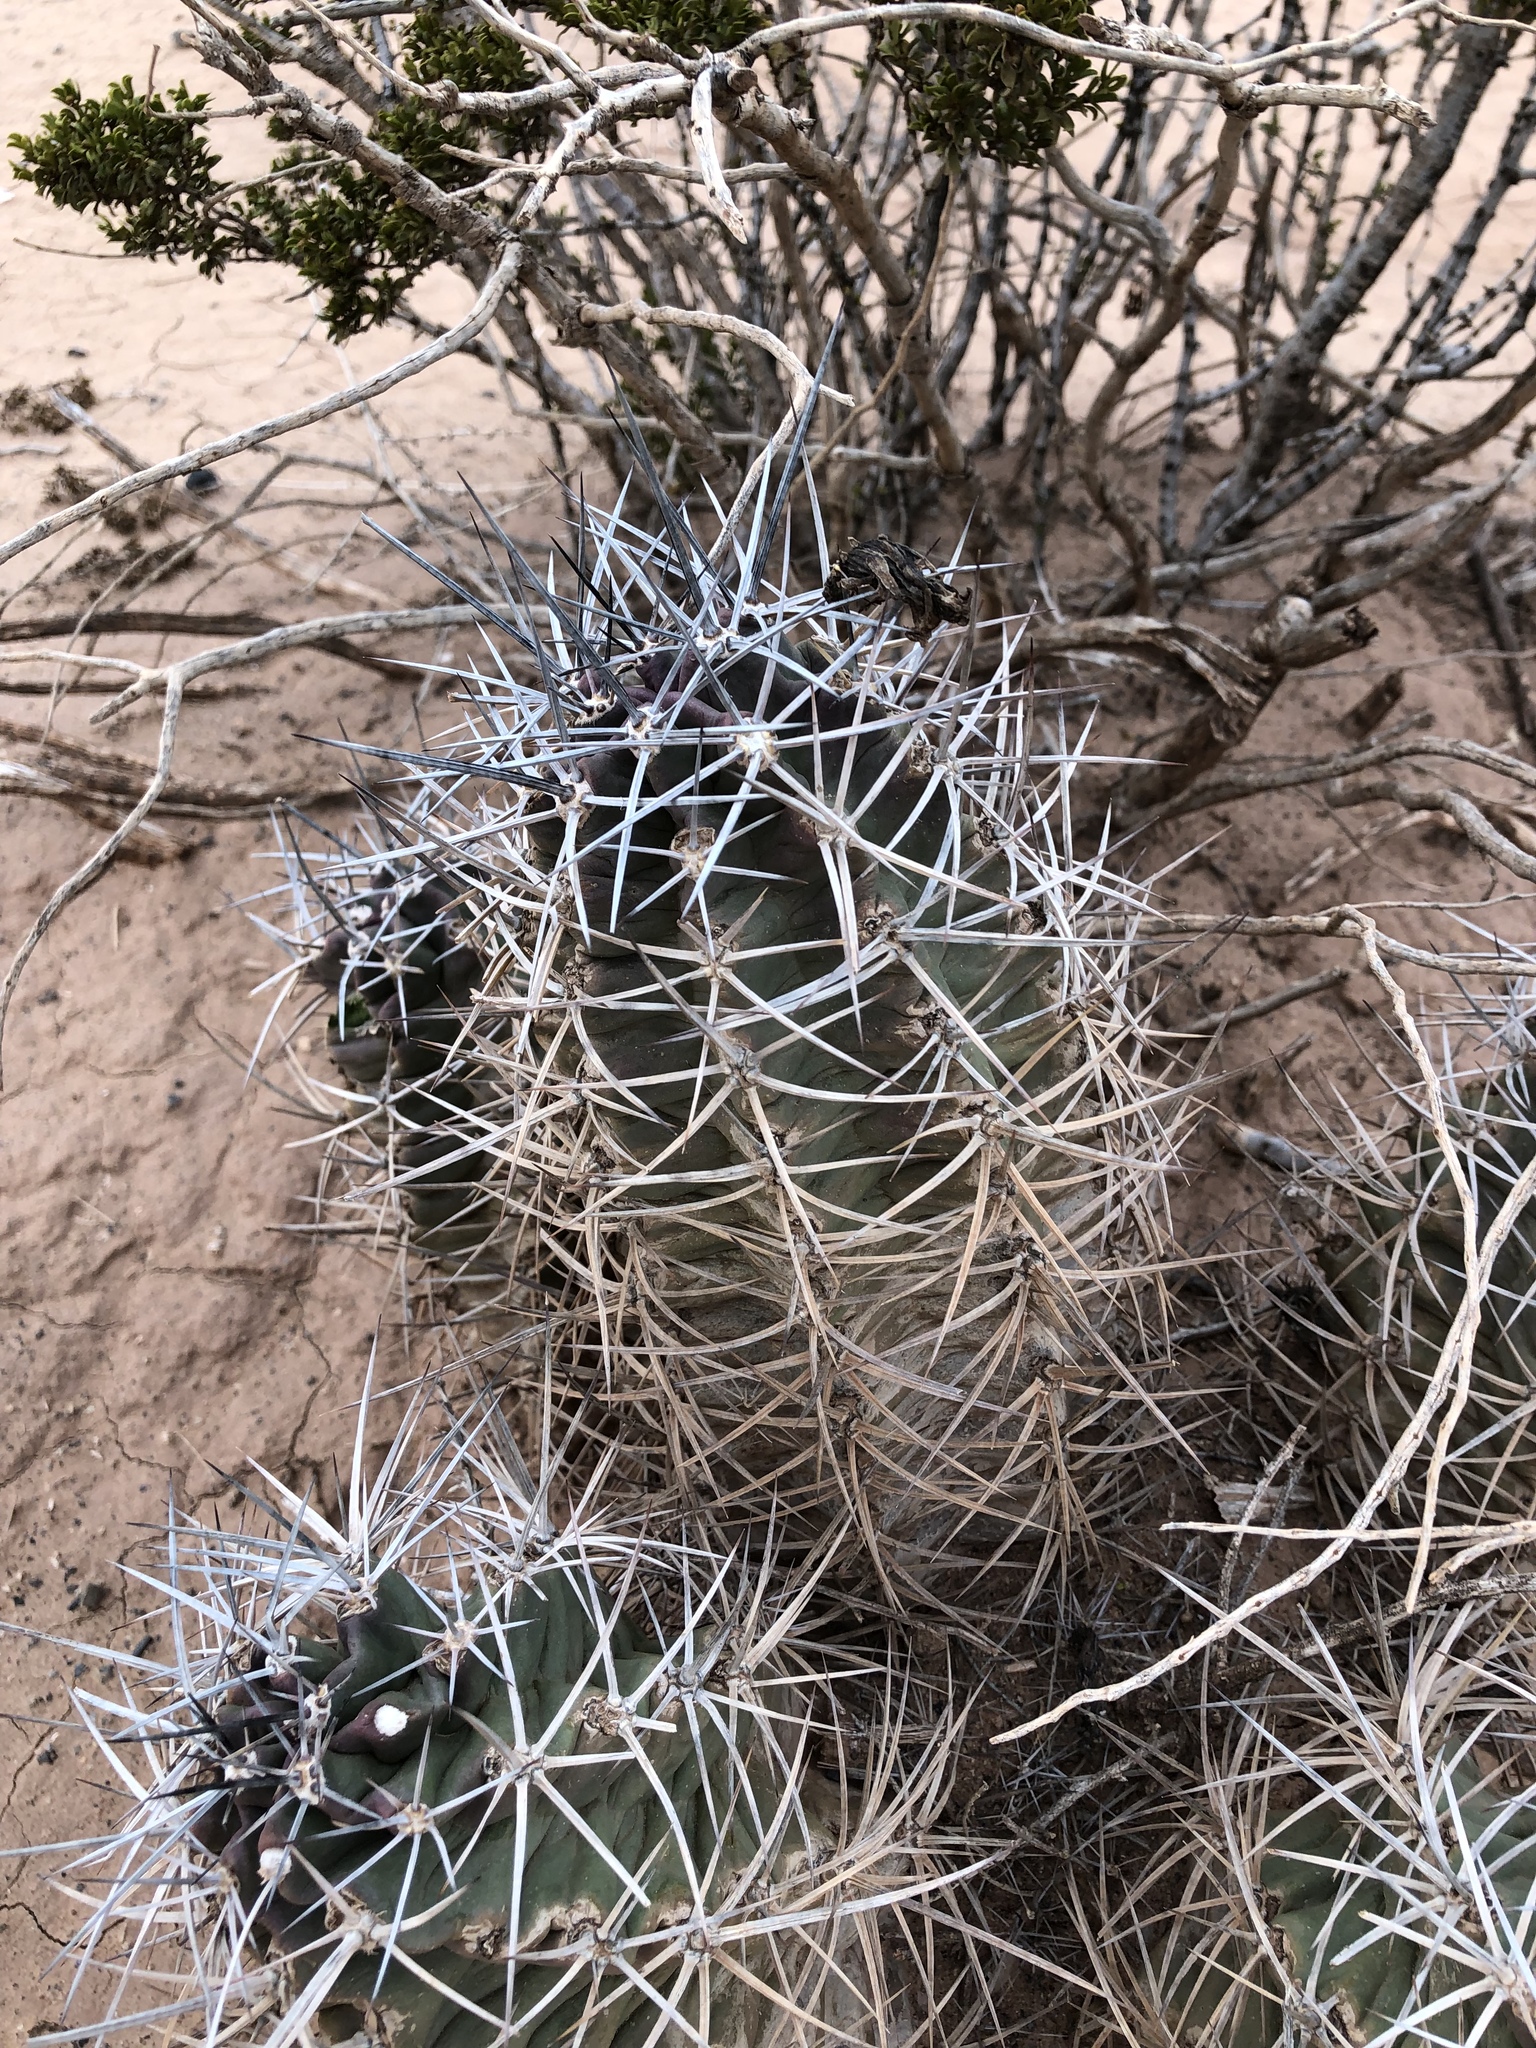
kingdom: Plantae
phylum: Tracheophyta
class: Magnoliopsida
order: Caryophyllales
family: Cactaceae
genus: Echinocereus
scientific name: Echinocereus triglochidiatus
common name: Claretcup hedgehog
